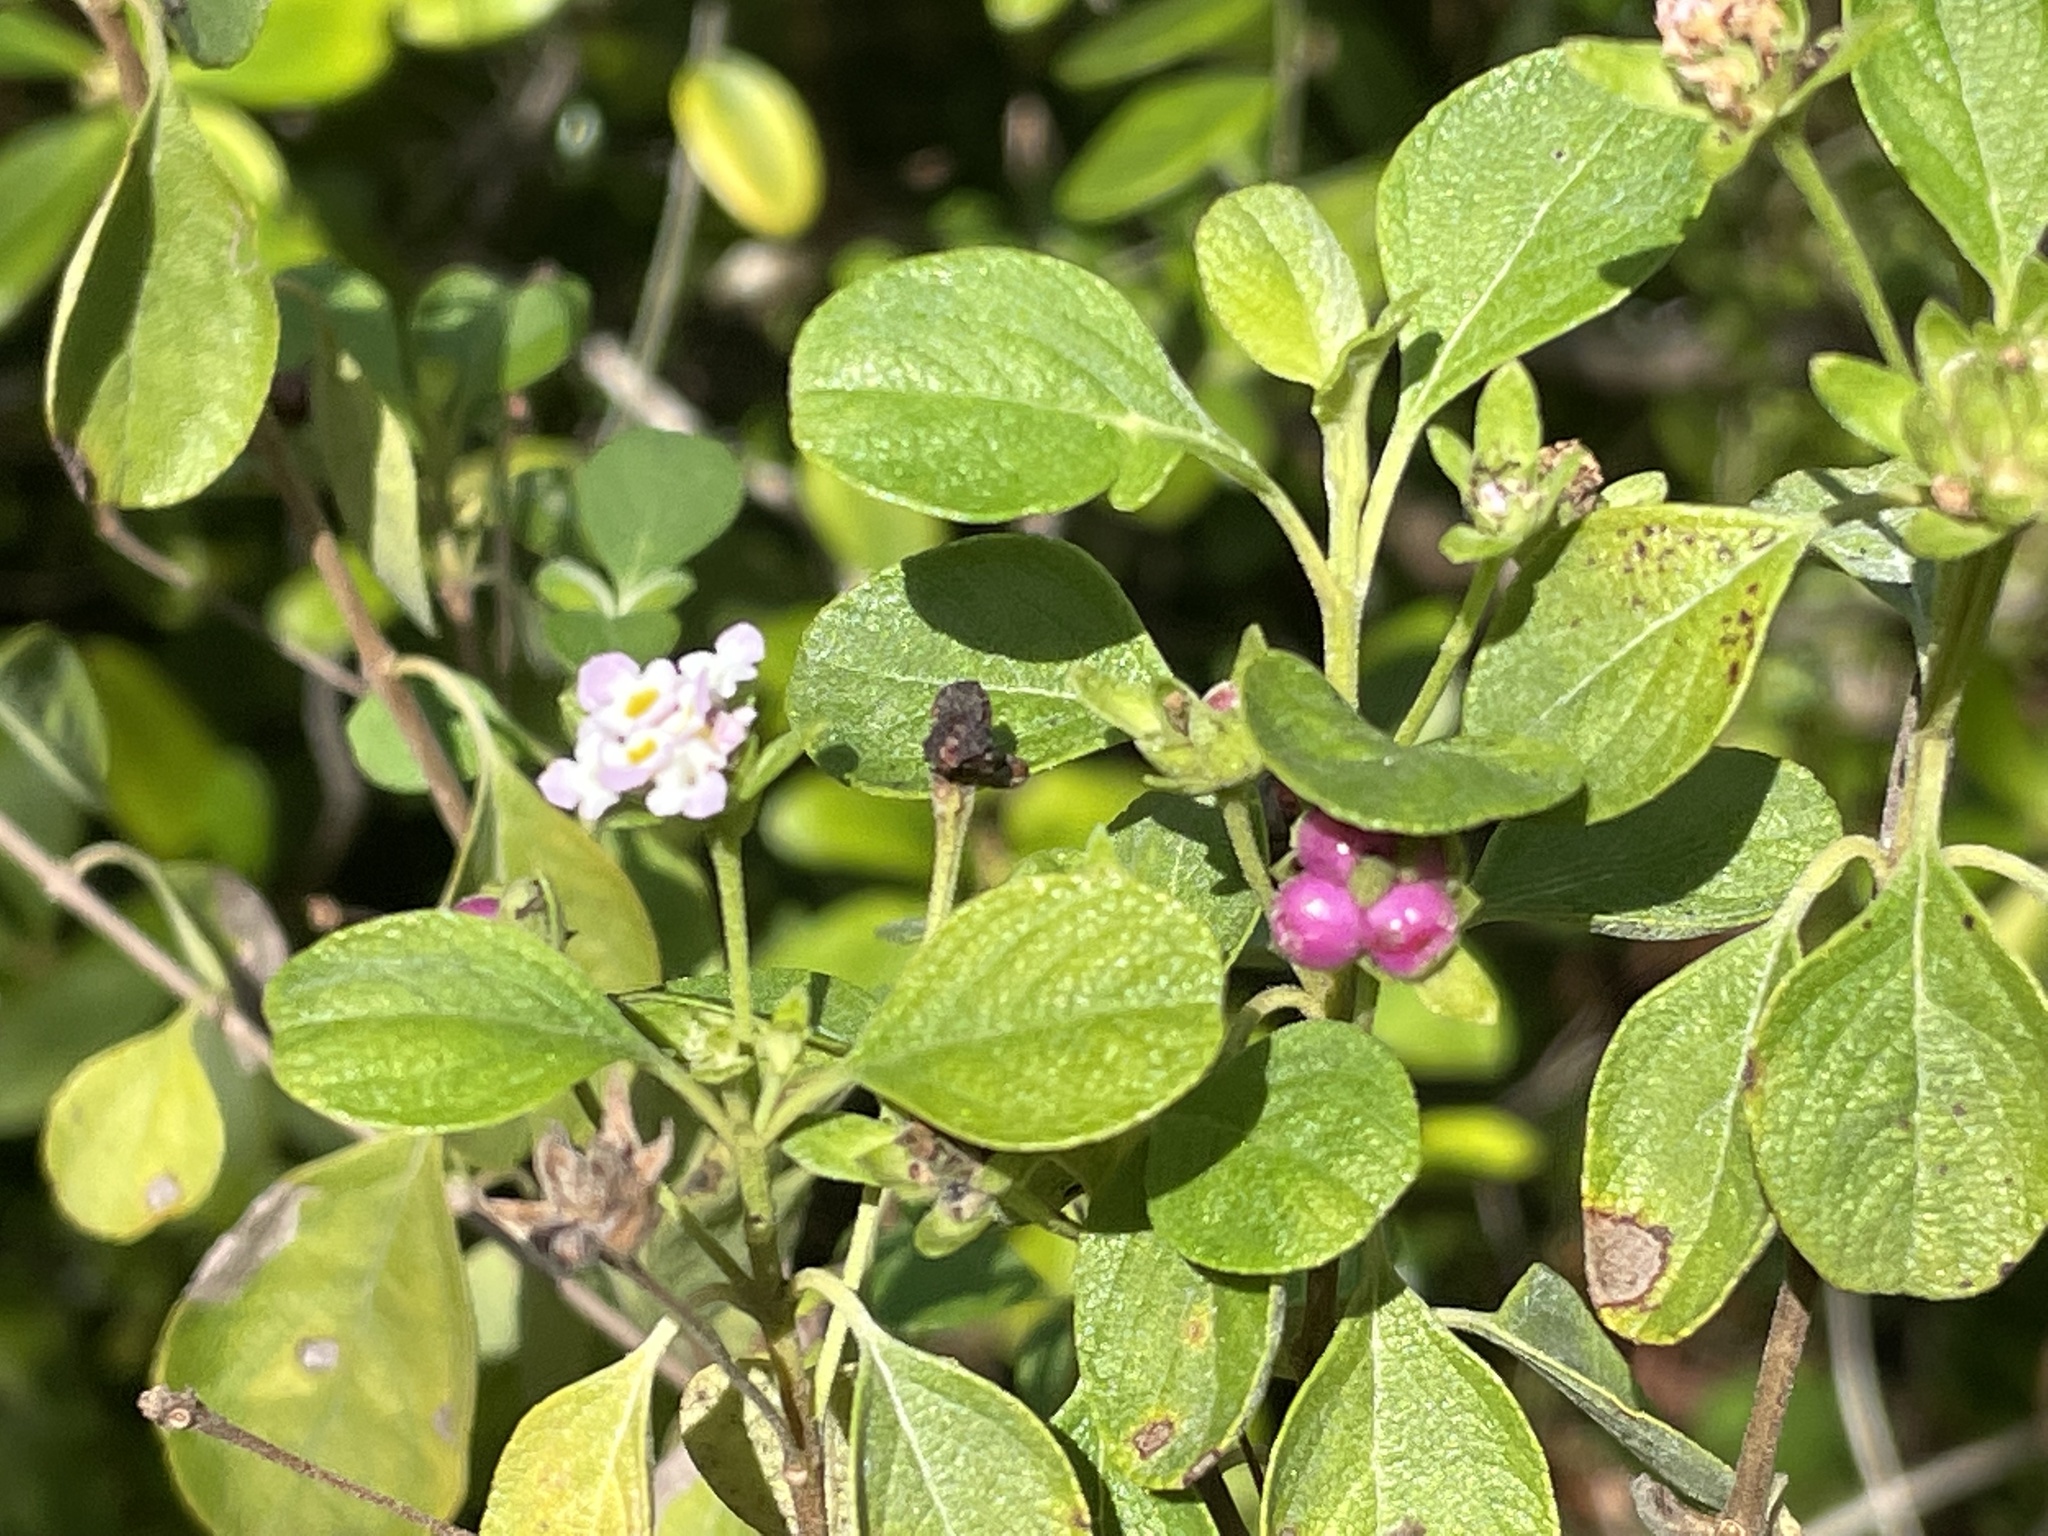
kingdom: Plantae
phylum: Tracheophyta
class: Magnoliopsida
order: Lamiales
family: Verbenaceae
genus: Lantana
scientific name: Lantana involucrata
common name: Black sage
